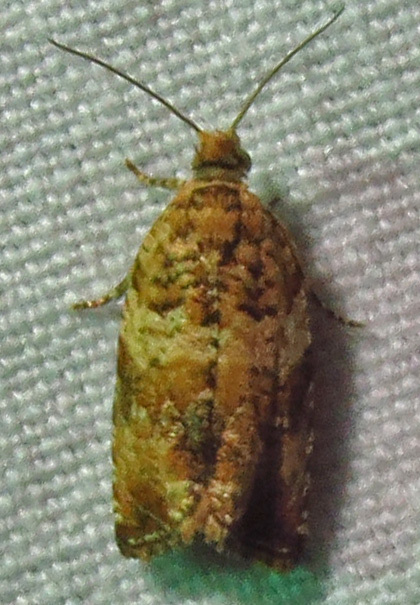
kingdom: Animalia
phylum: Arthropoda
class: Insecta
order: Lepidoptera
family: Tortricidae
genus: Celypha
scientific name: Celypha cespitana
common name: Thyme marble
